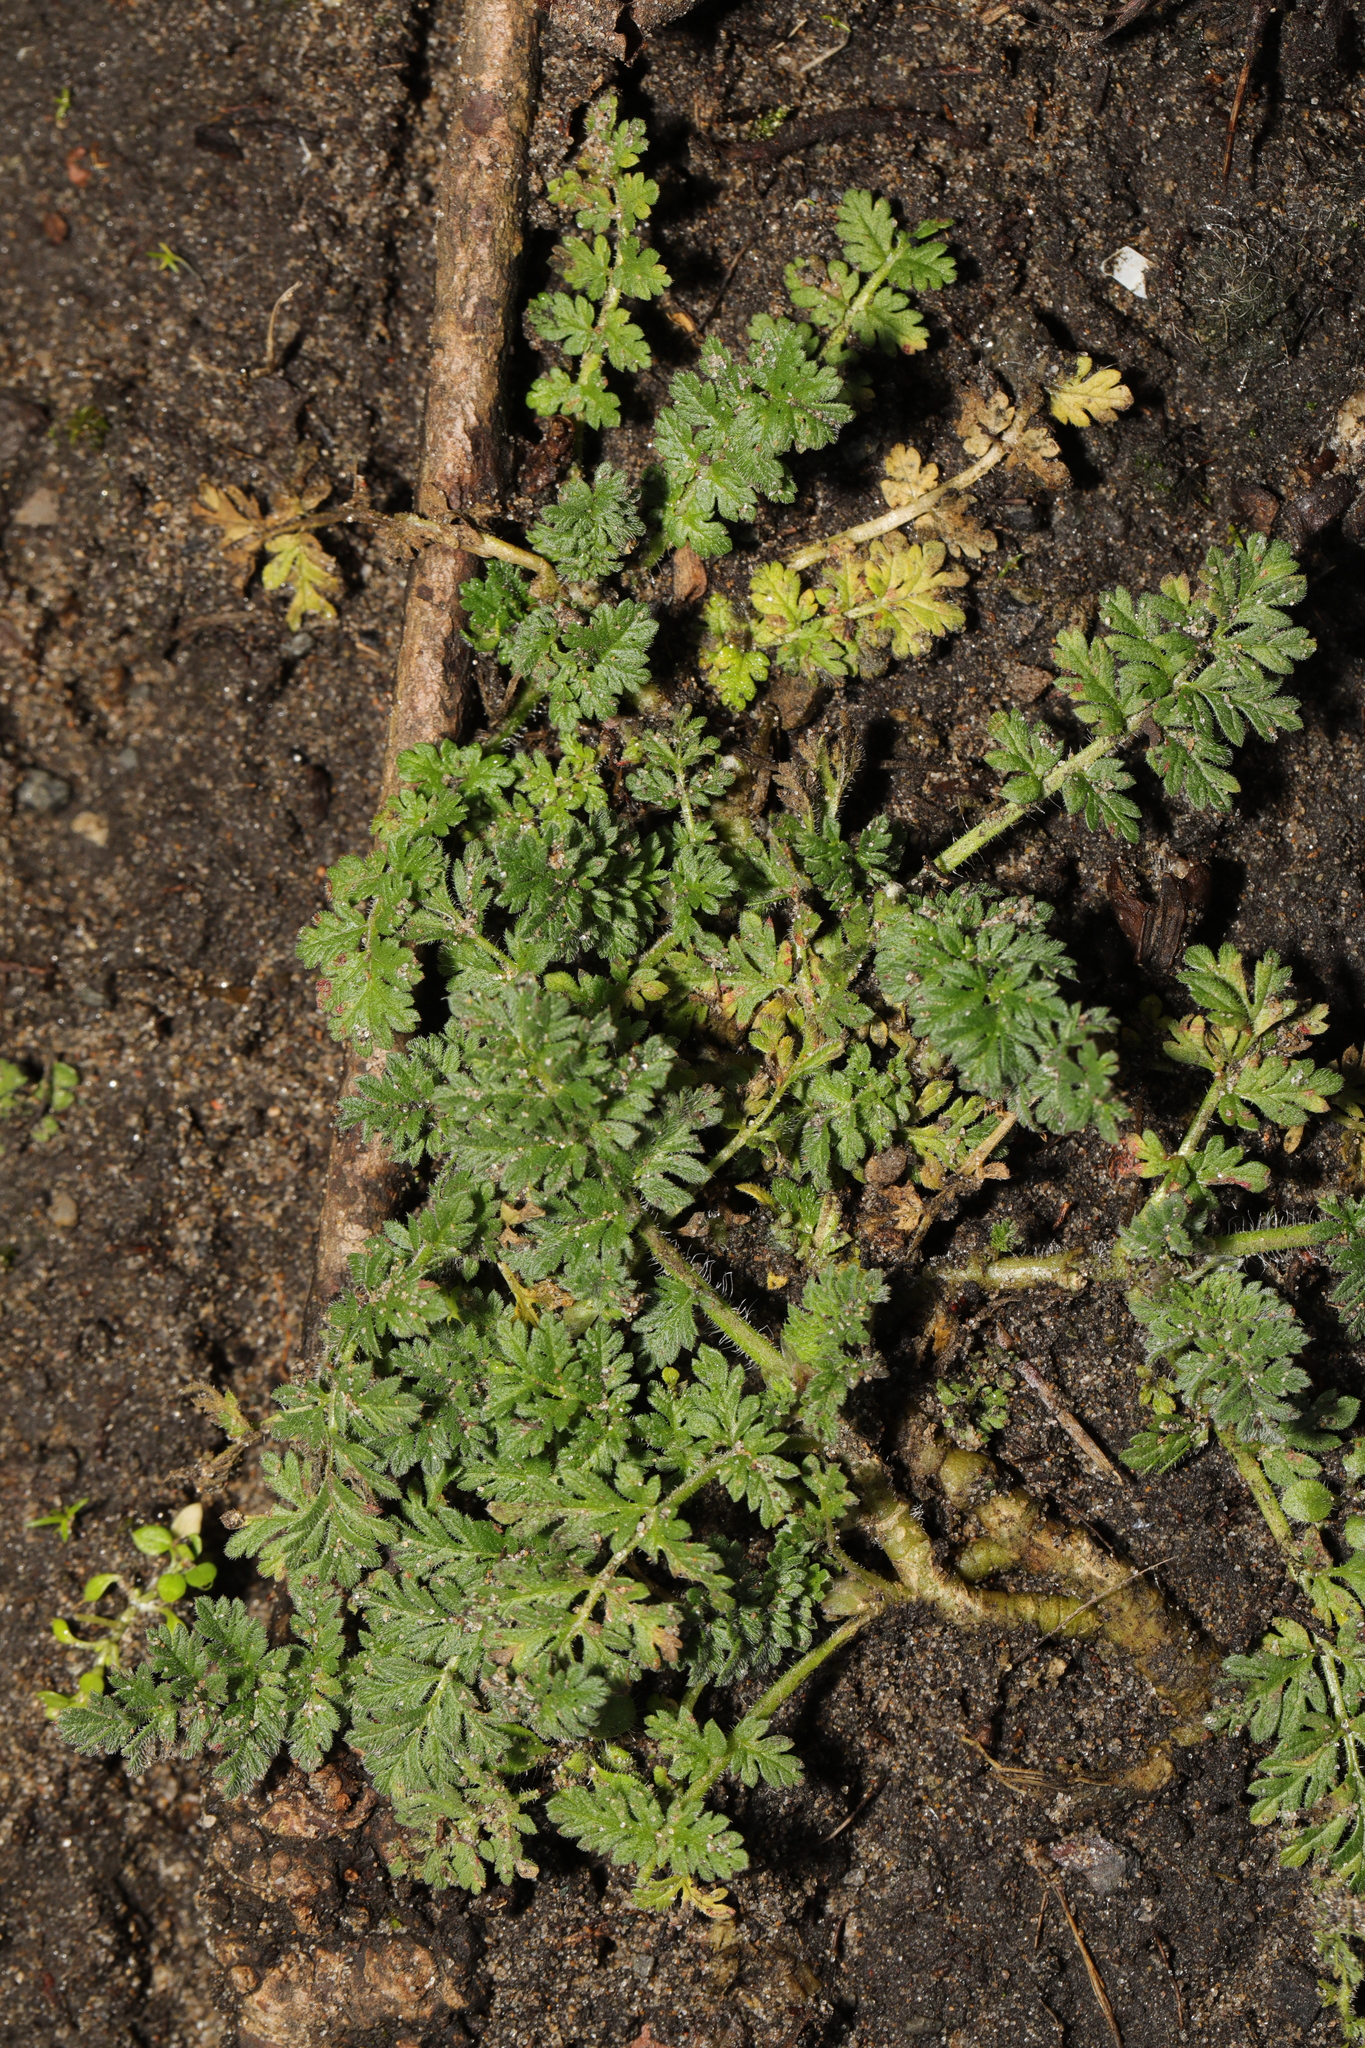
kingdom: Plantae
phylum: Tracheophyta
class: Magnoliopsida
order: Geraniales
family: Geraniaceae
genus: Erodium
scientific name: Erodium cicutarium
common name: Common stork's-bill
